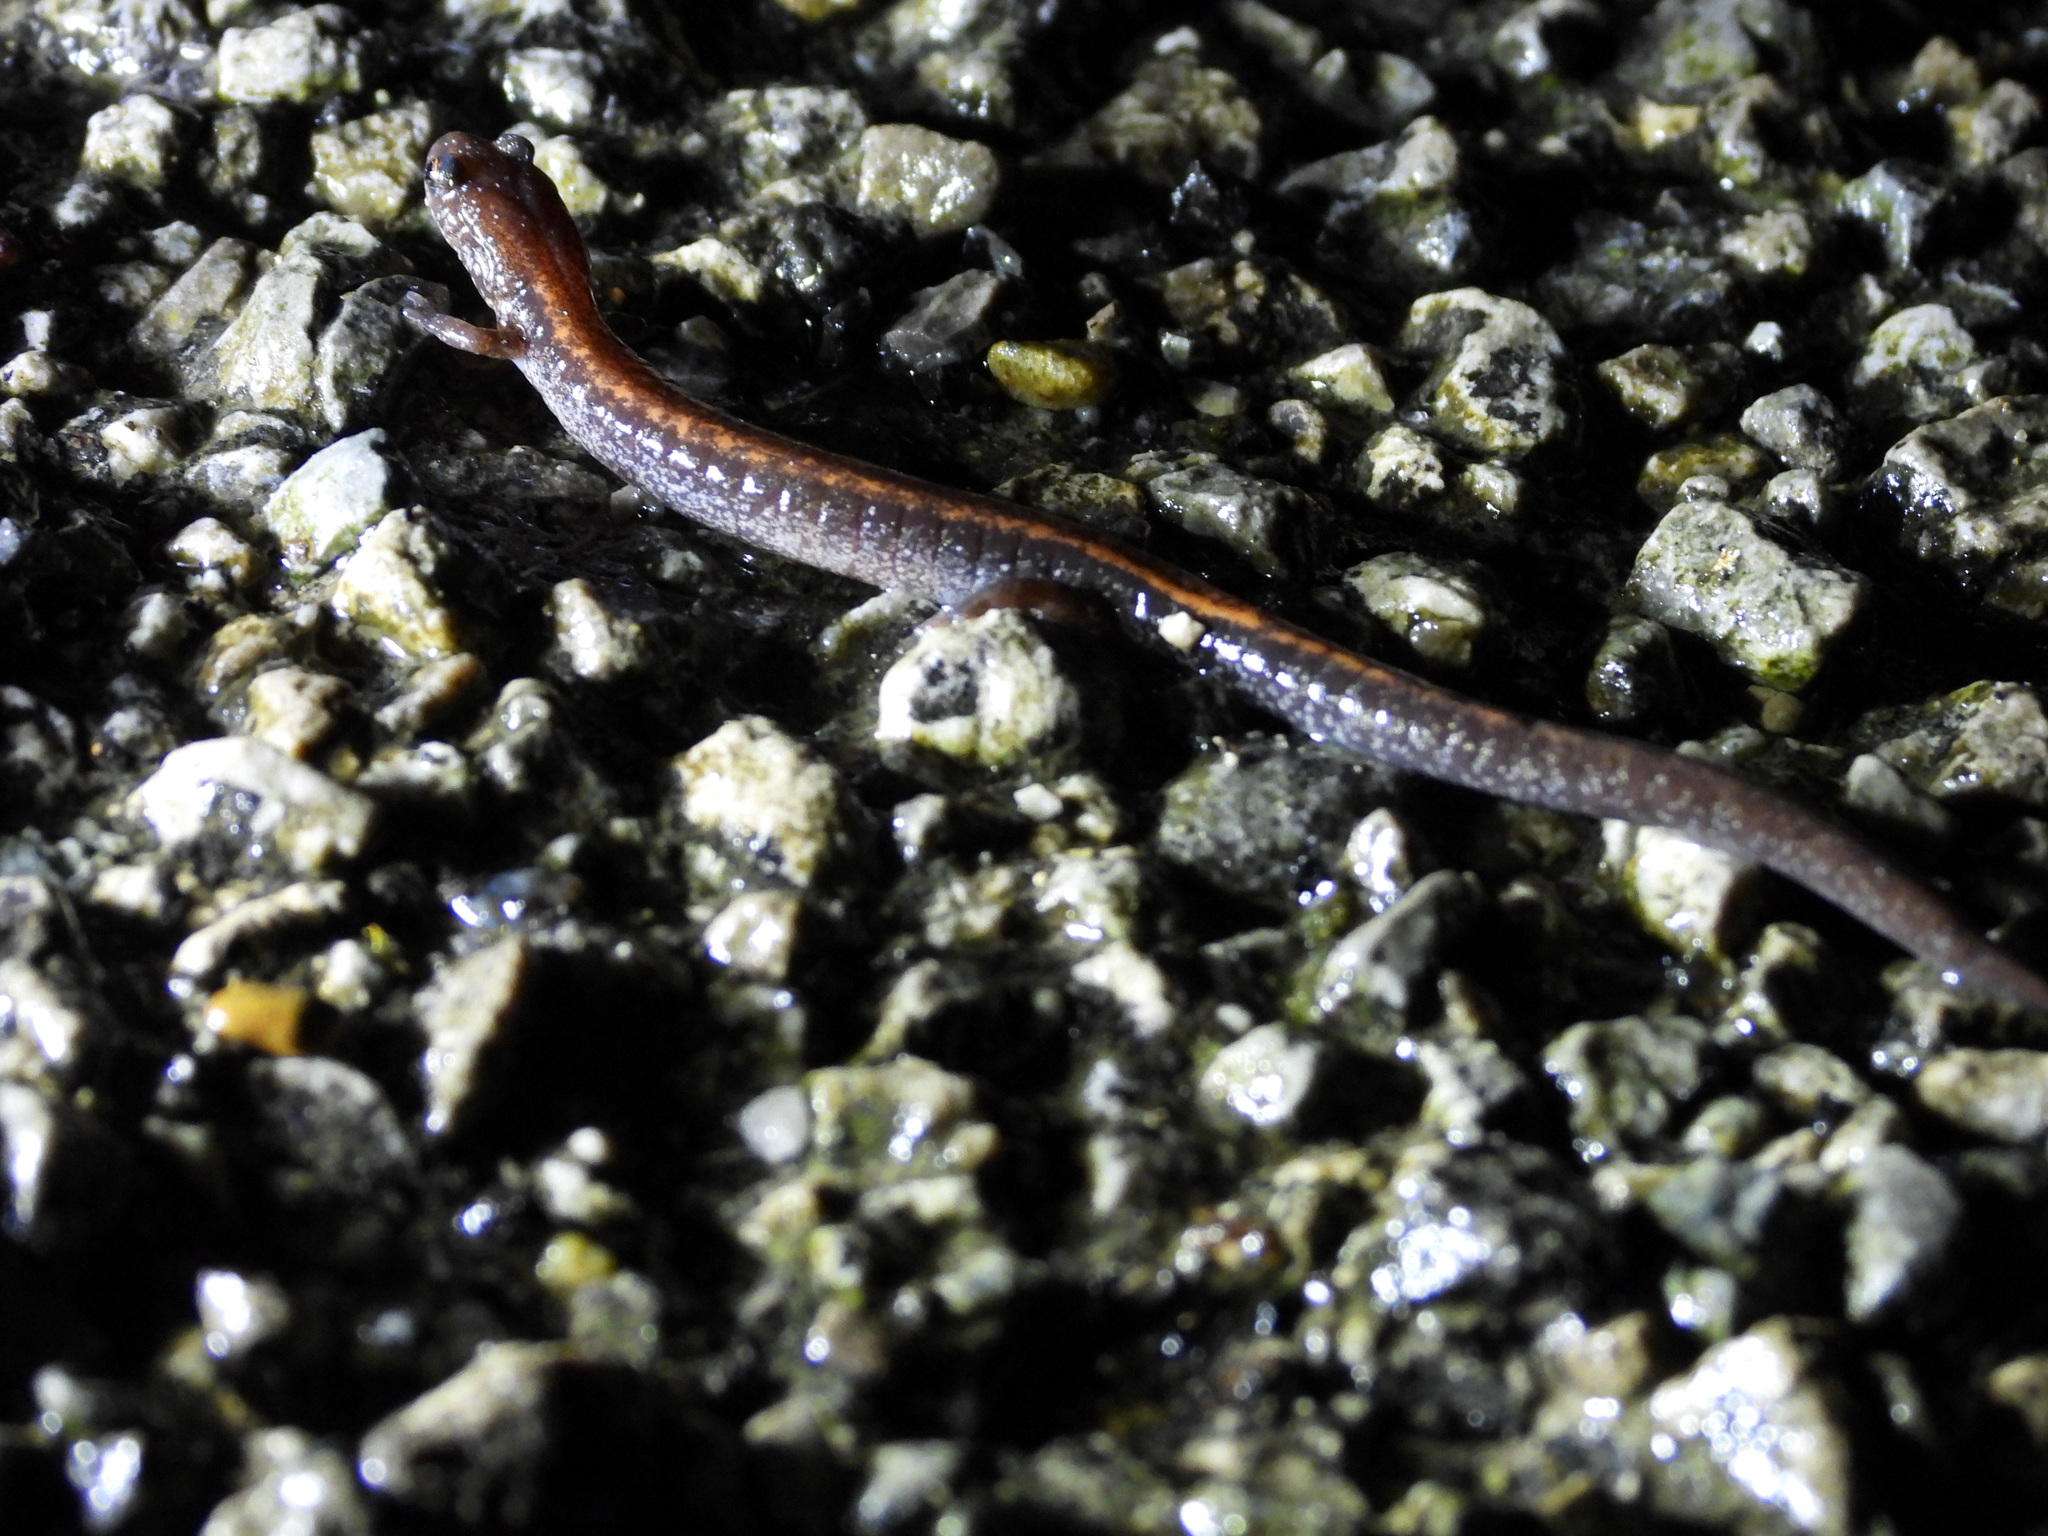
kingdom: Animalia
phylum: Chordata
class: Amphibia
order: Caudata
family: Plethodontidae
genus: Plethodon
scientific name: Plethodon cinereus
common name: Redback salamander
